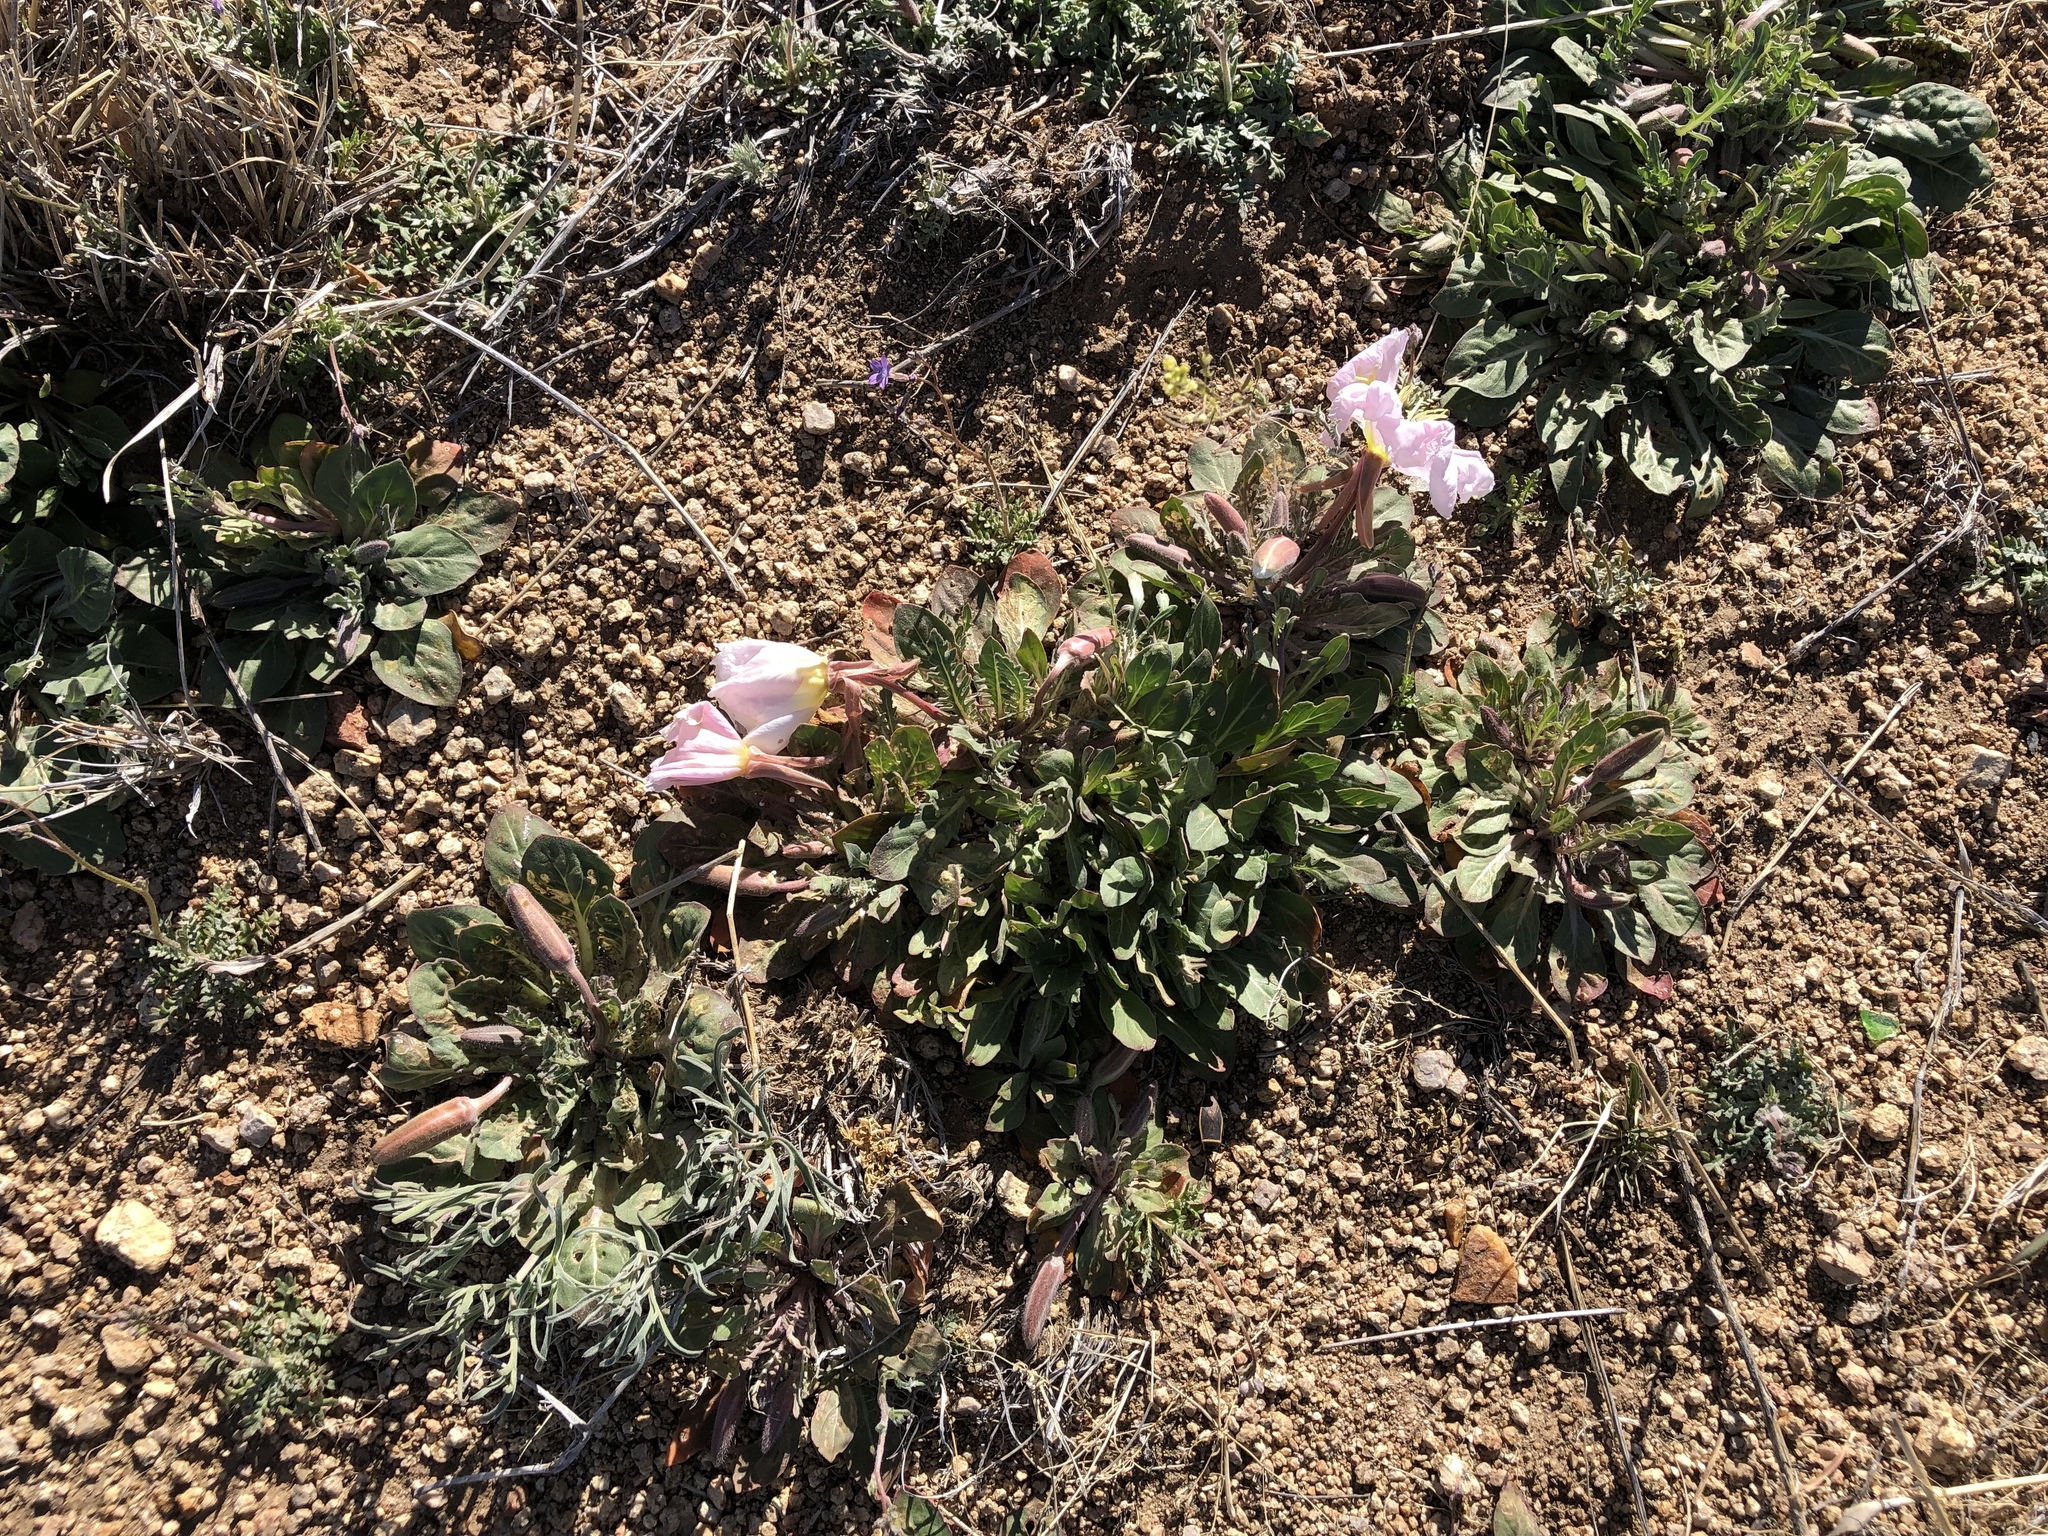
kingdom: Plantae
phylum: Tracheophyta
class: Magnoliopsida
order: Myrtales
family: Onagraceae
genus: Oenothera
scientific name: Oenothera albicaulis
